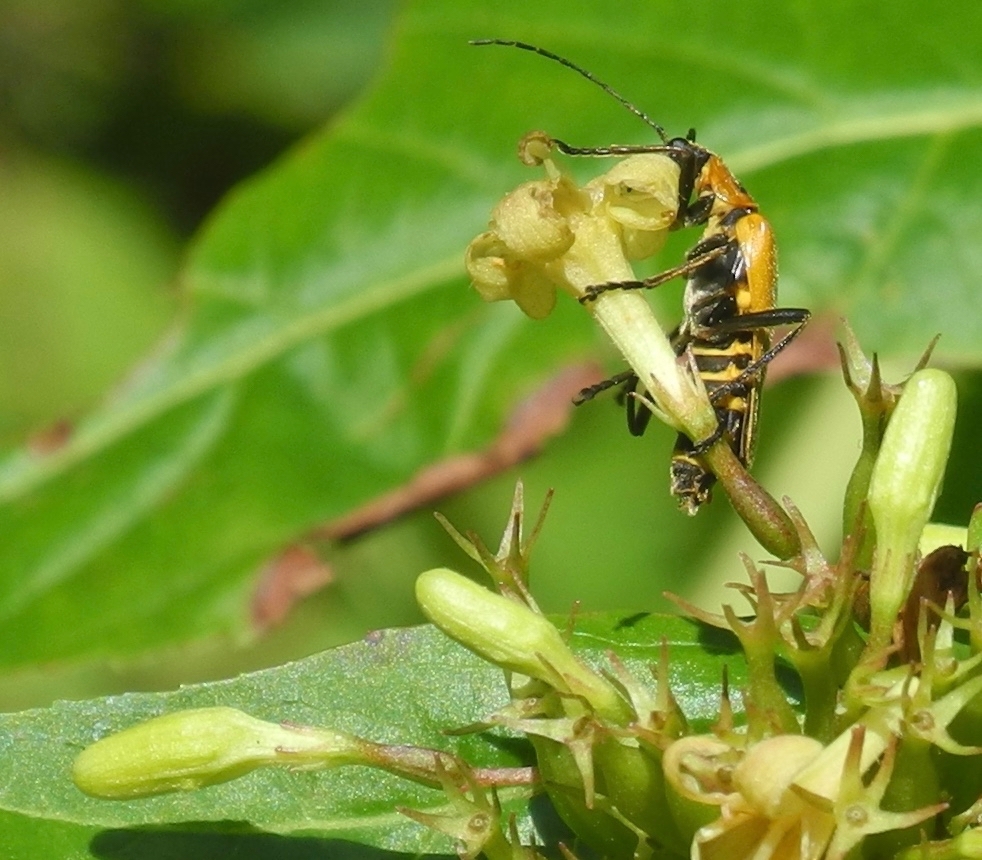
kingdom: Animalia
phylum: Arthropoda
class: Insecta
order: Coleoptera
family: Cantharidae
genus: Chauliognathus
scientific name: Chauliognathus pensylvanicus
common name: Goldenrod soldier beetle
